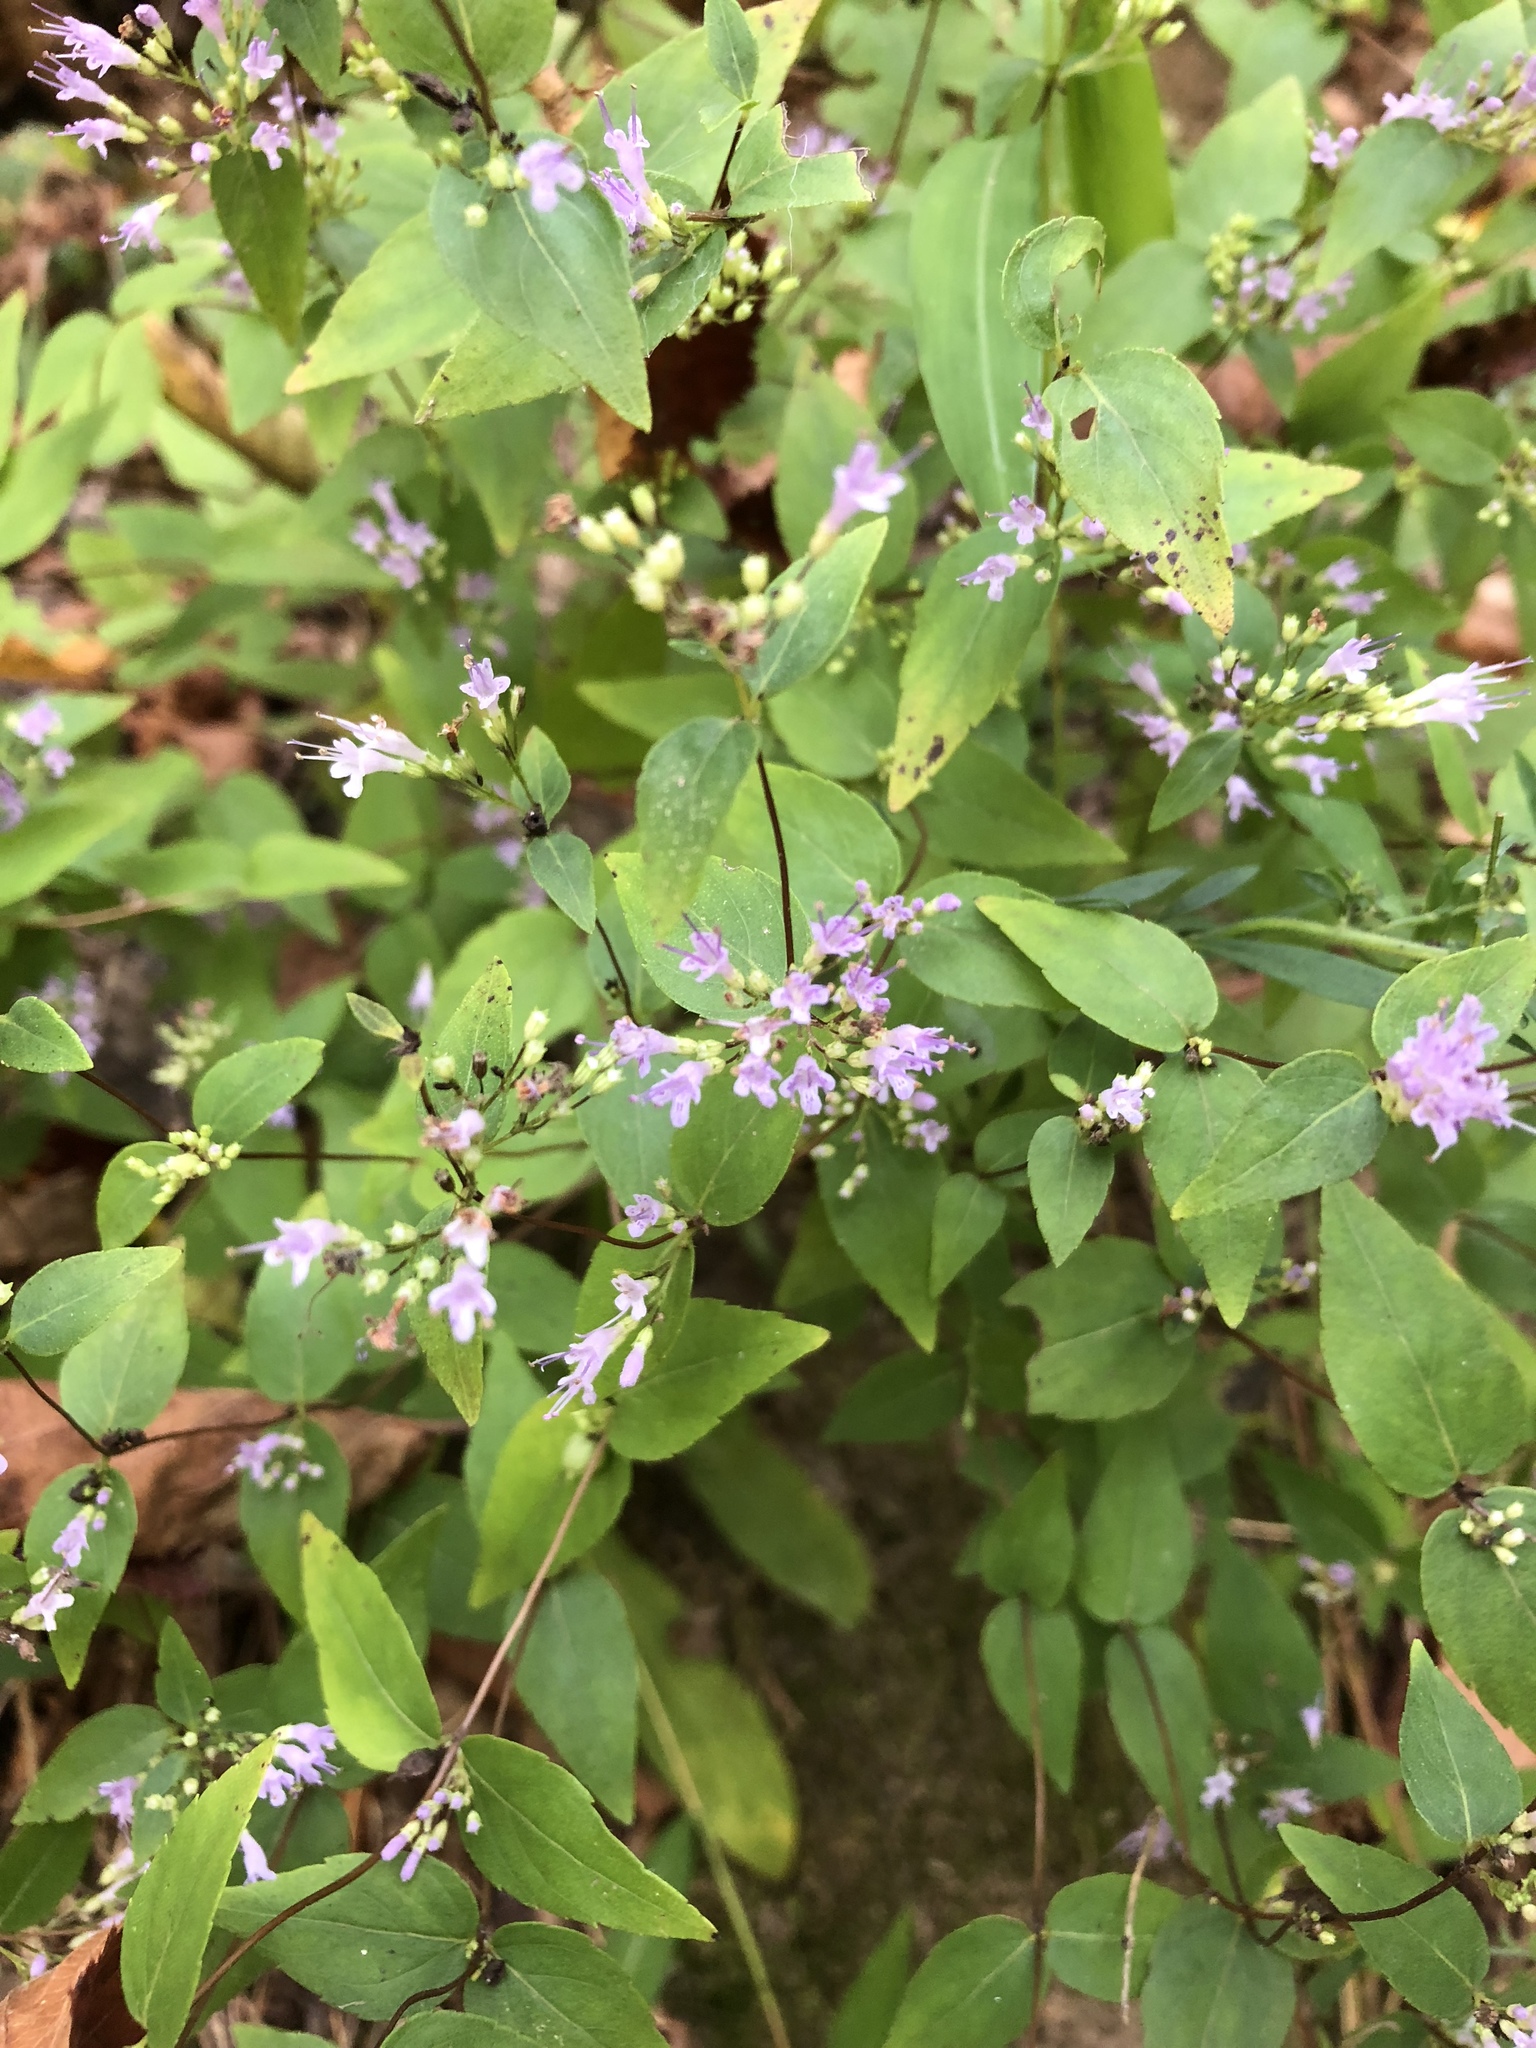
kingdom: Plantae
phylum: Tracheophyta
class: Magnoliopsida
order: Lamiales
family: Lamiaceae
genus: Cunila
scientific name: Cunila origanoides
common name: American dittany
